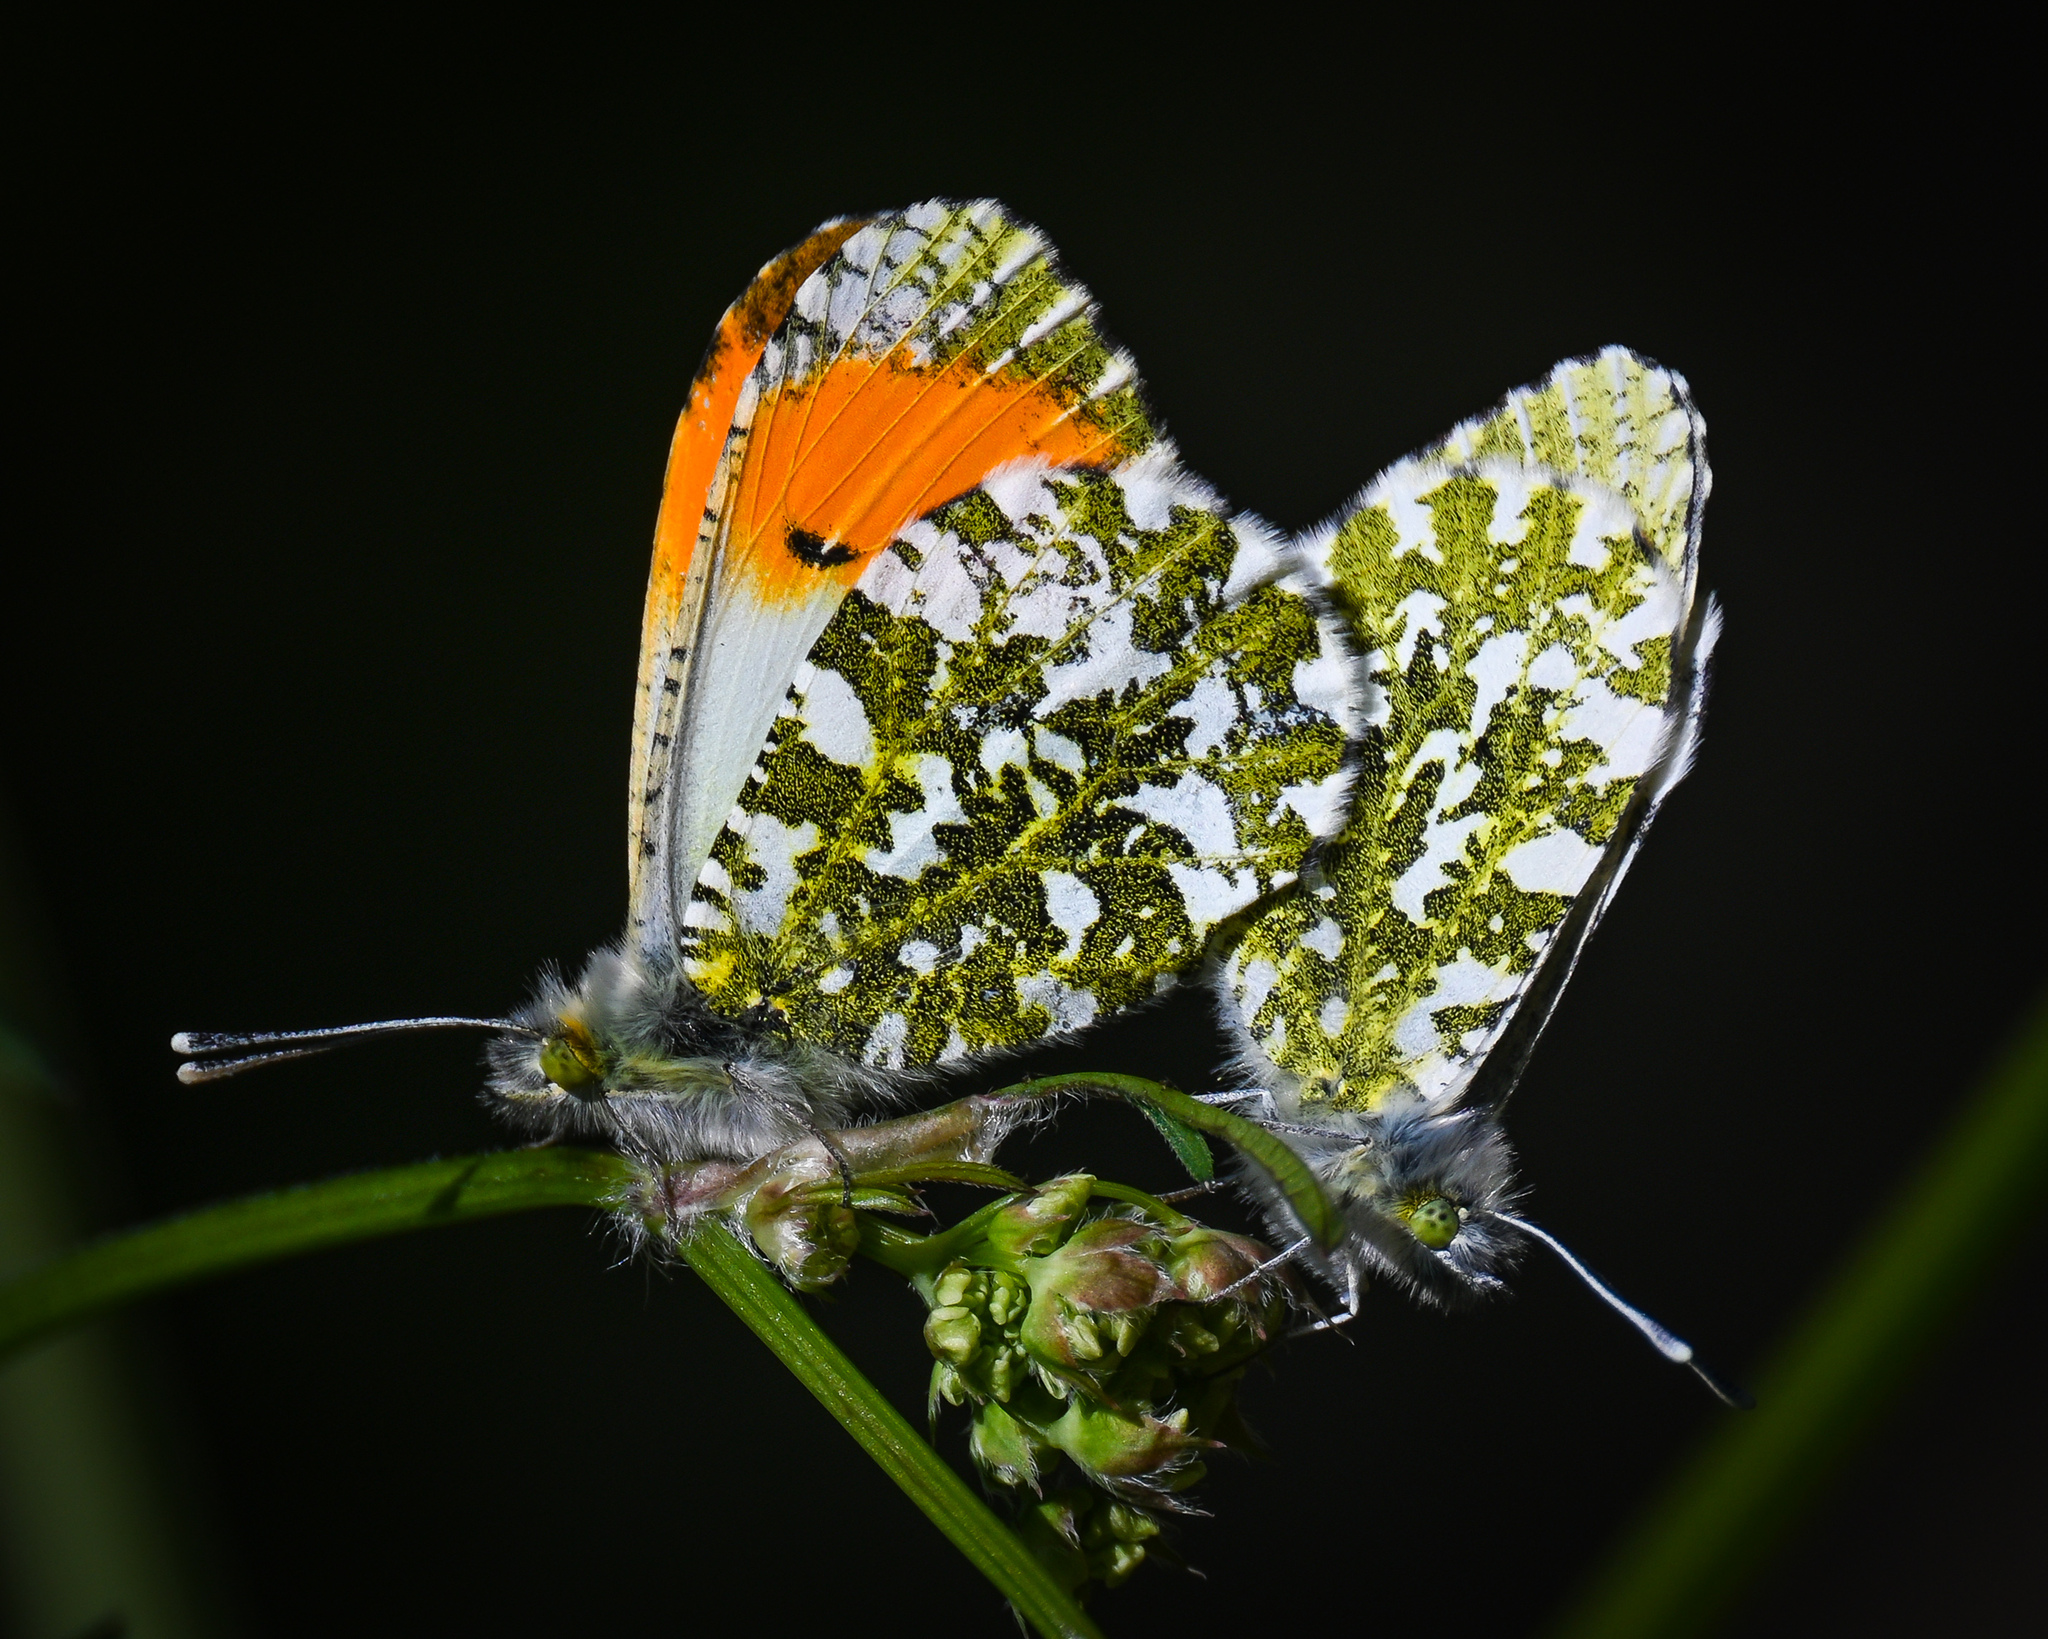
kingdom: Animalia
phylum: Arthropoda
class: Insecta
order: Lepidoptera
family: Pieridae
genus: Anthocharis
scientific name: Anthocharis cardamines
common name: Orange-tip
